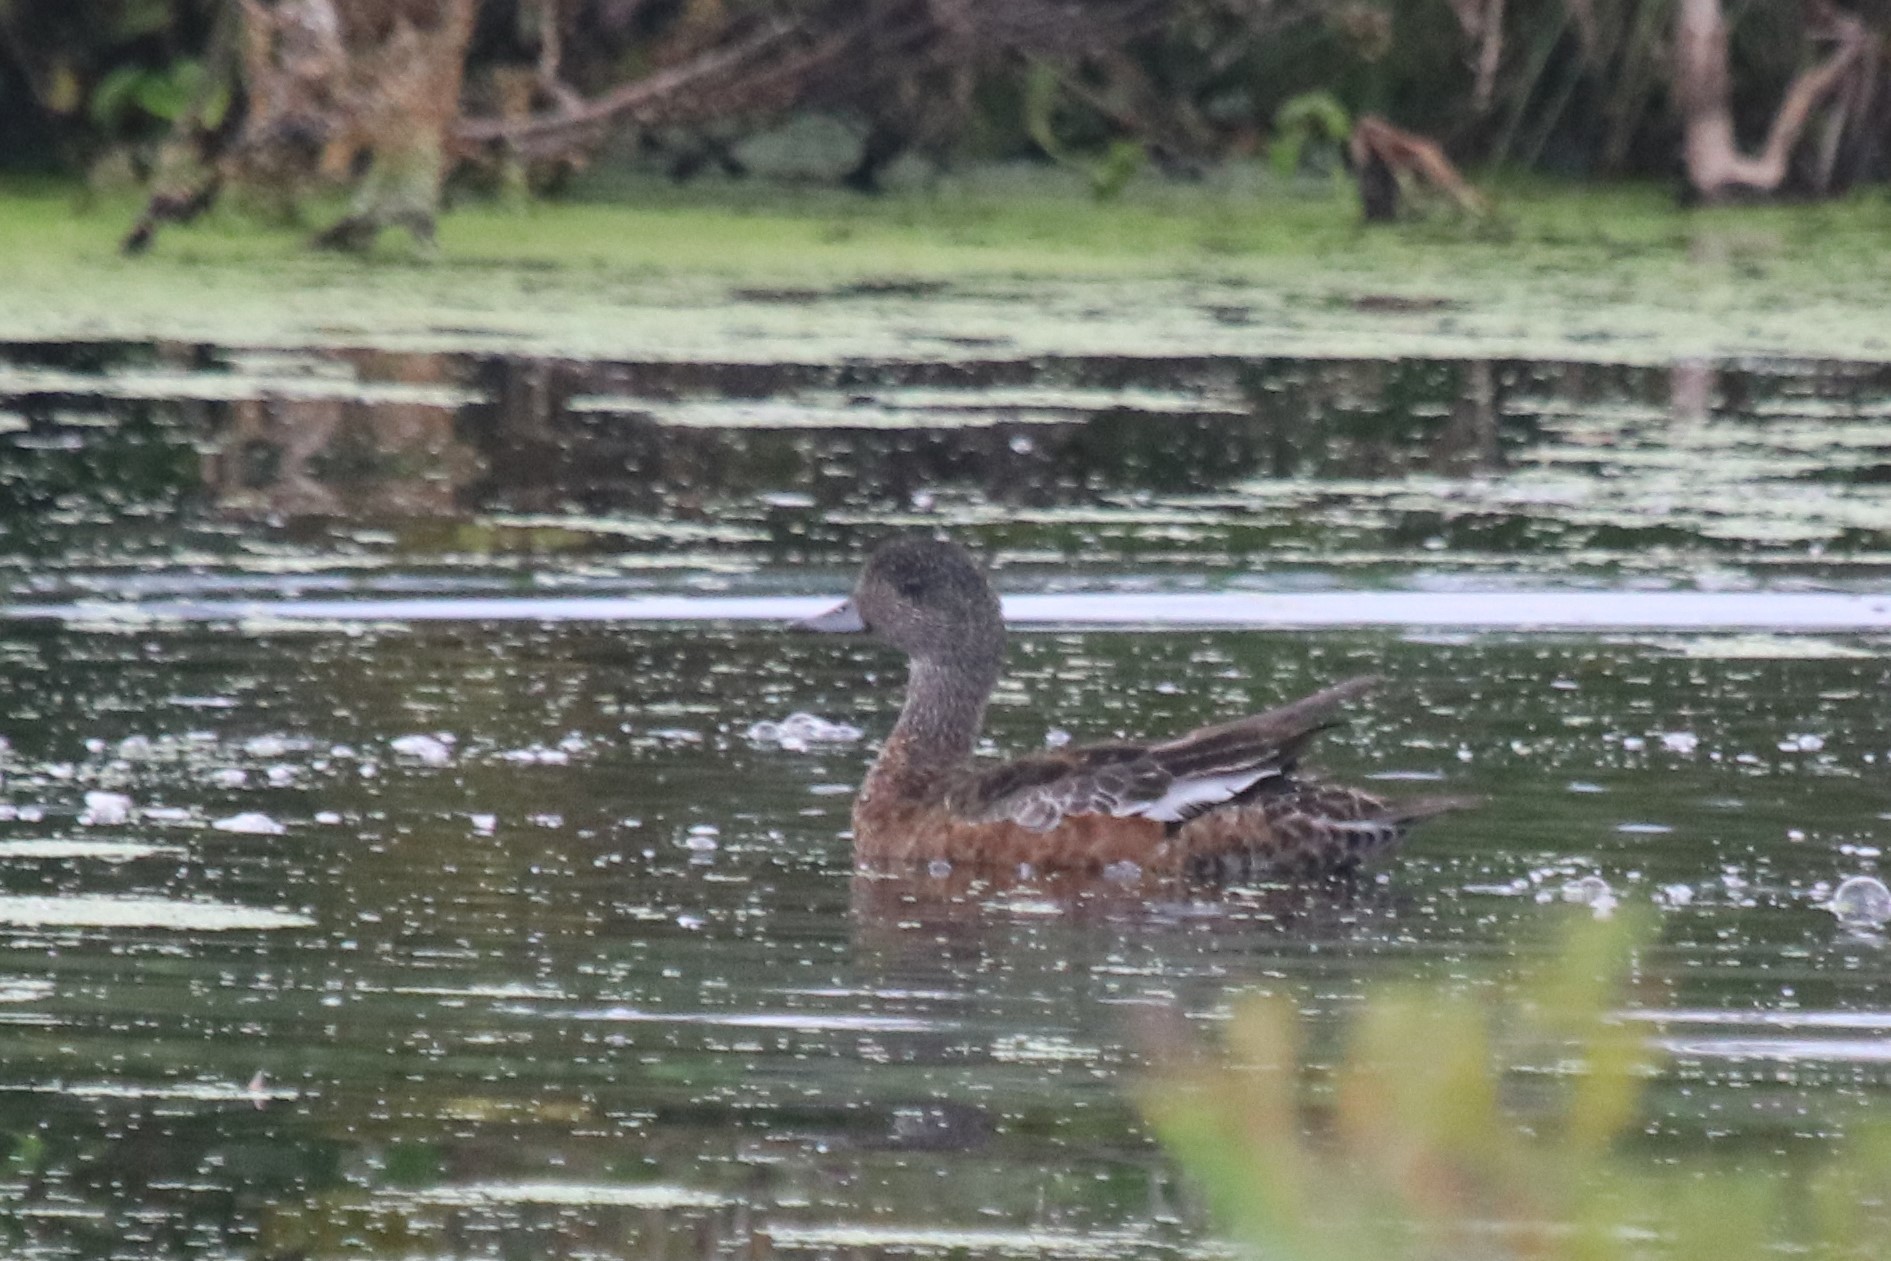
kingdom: Animalia
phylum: Chordata
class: Aves
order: Anseriformes
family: Anatidae
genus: Mareca
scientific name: Mareca americana
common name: American wigeon
